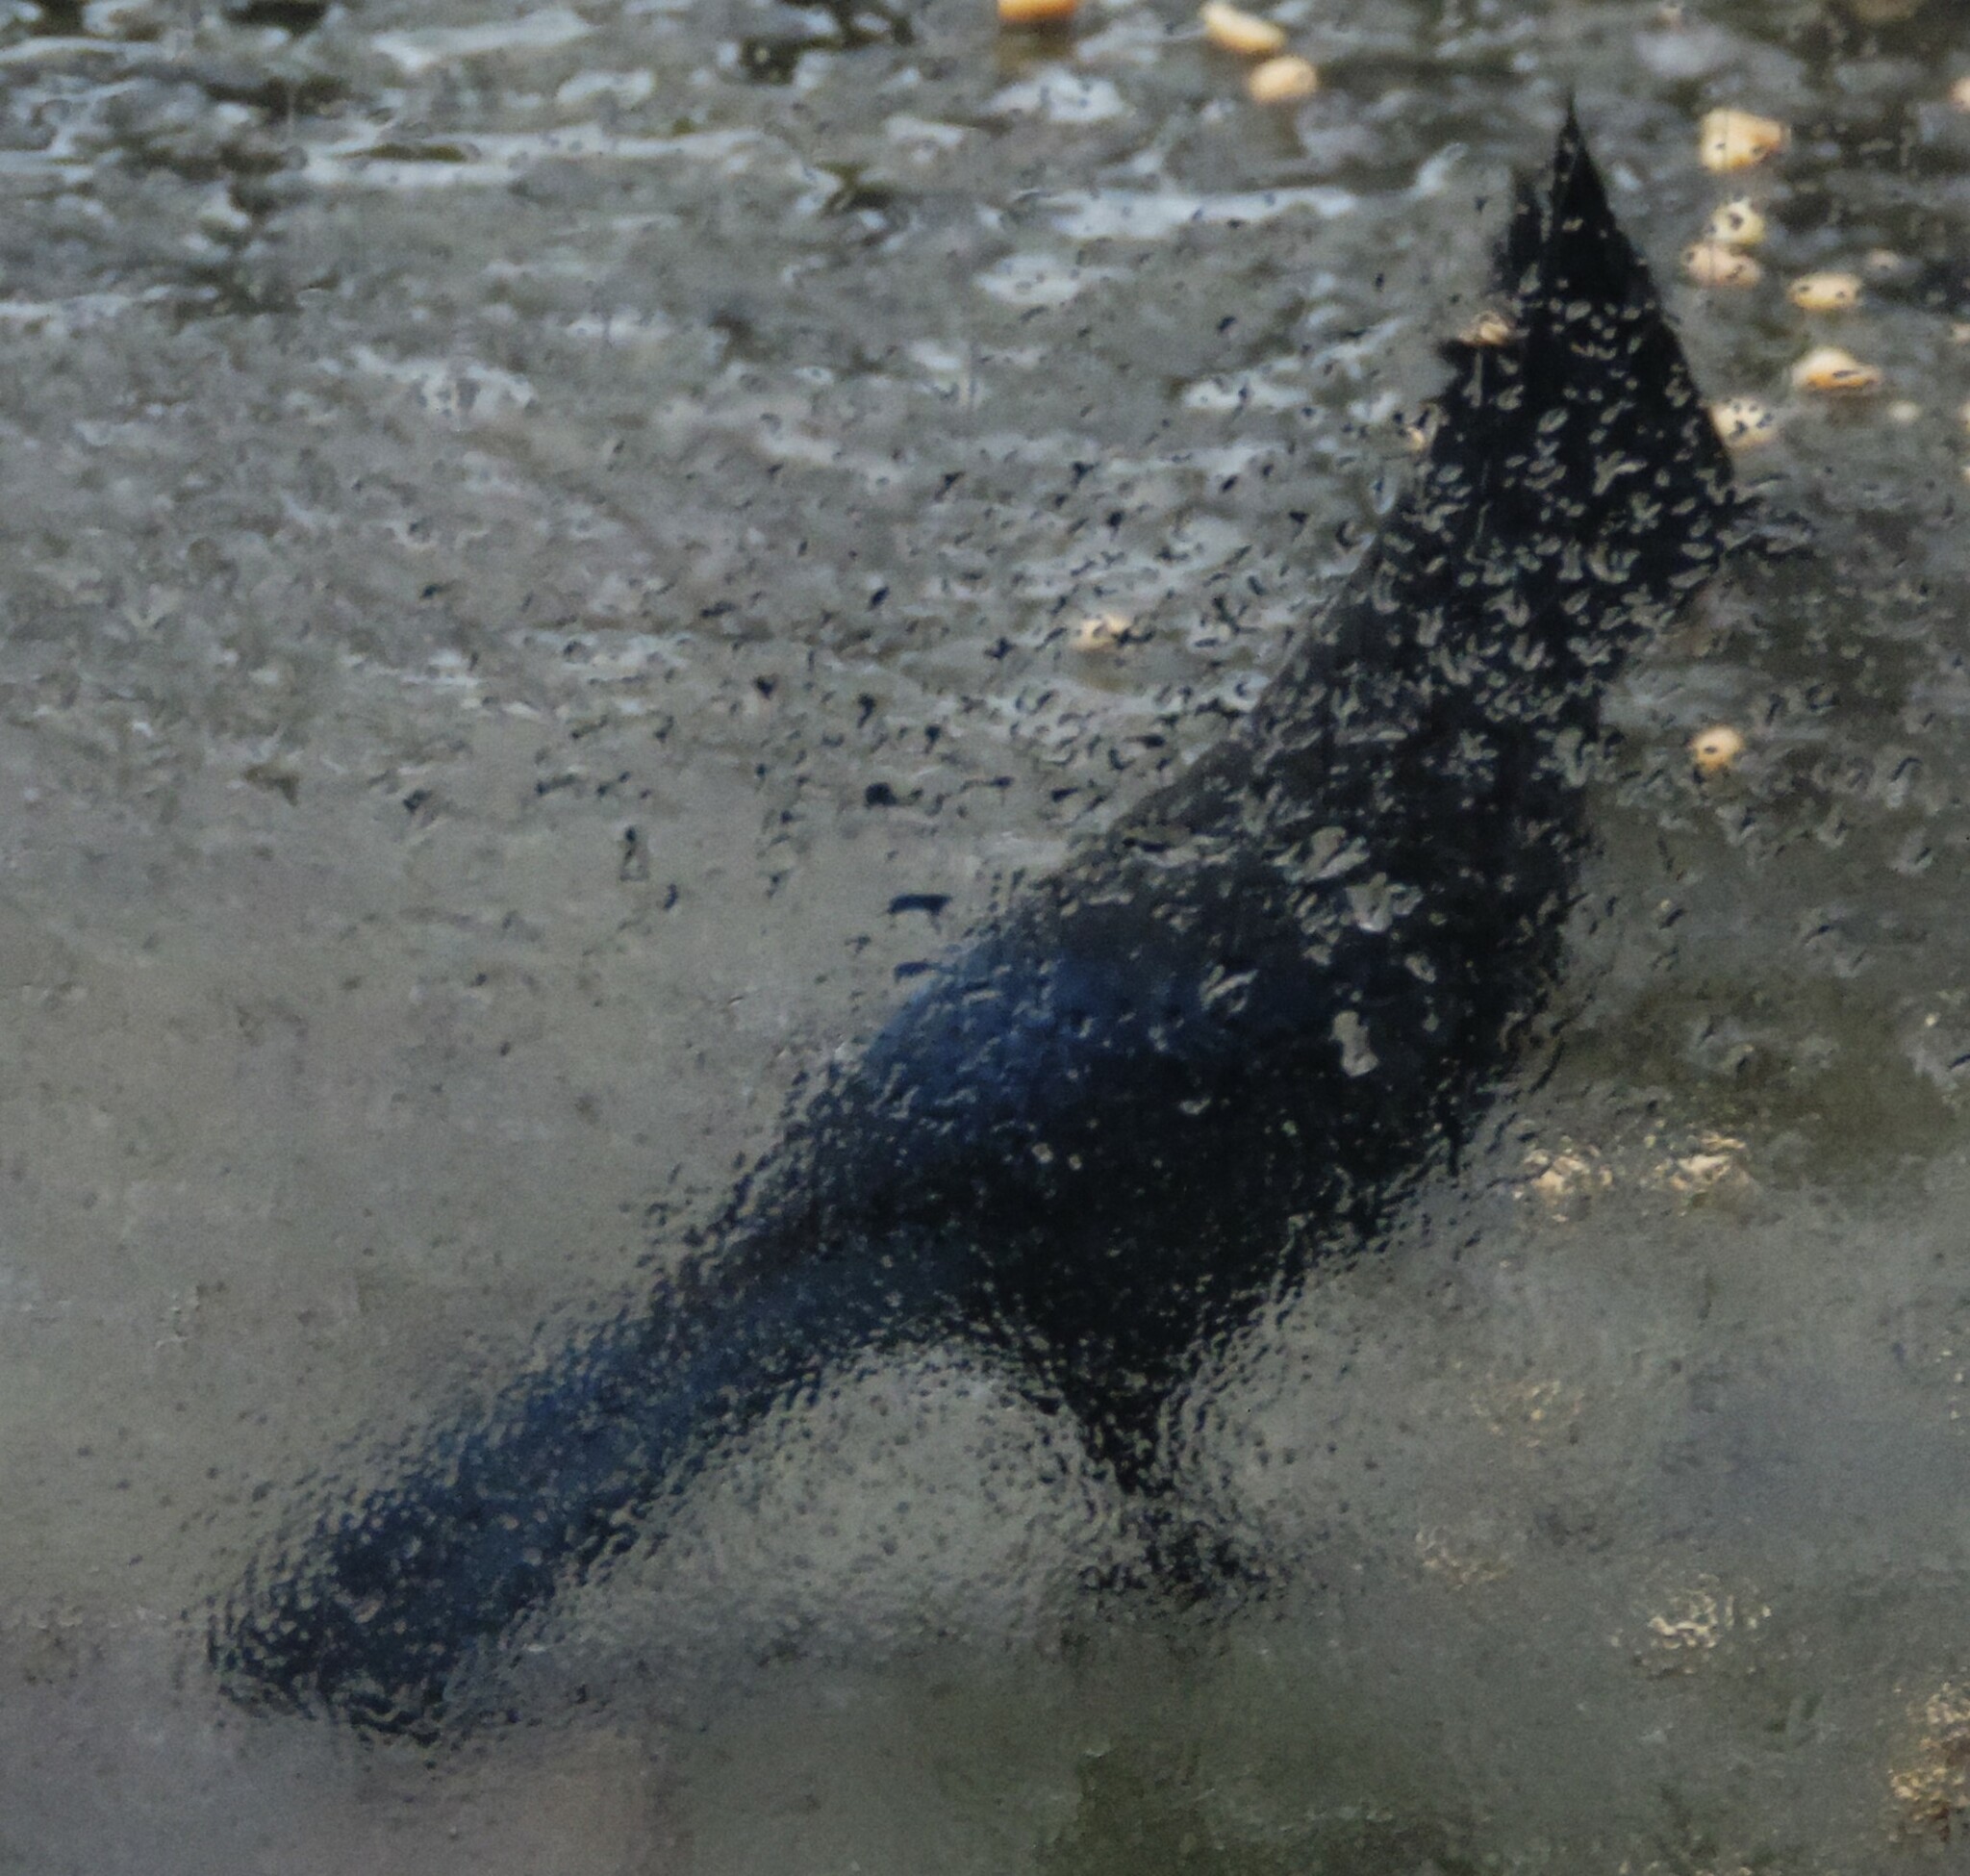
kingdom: Animalia
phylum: Chordata
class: Aves
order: Passeriformes
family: Corvidae
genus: Cyanocitta
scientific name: Cyanocitta stelleri
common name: Steller's jay
